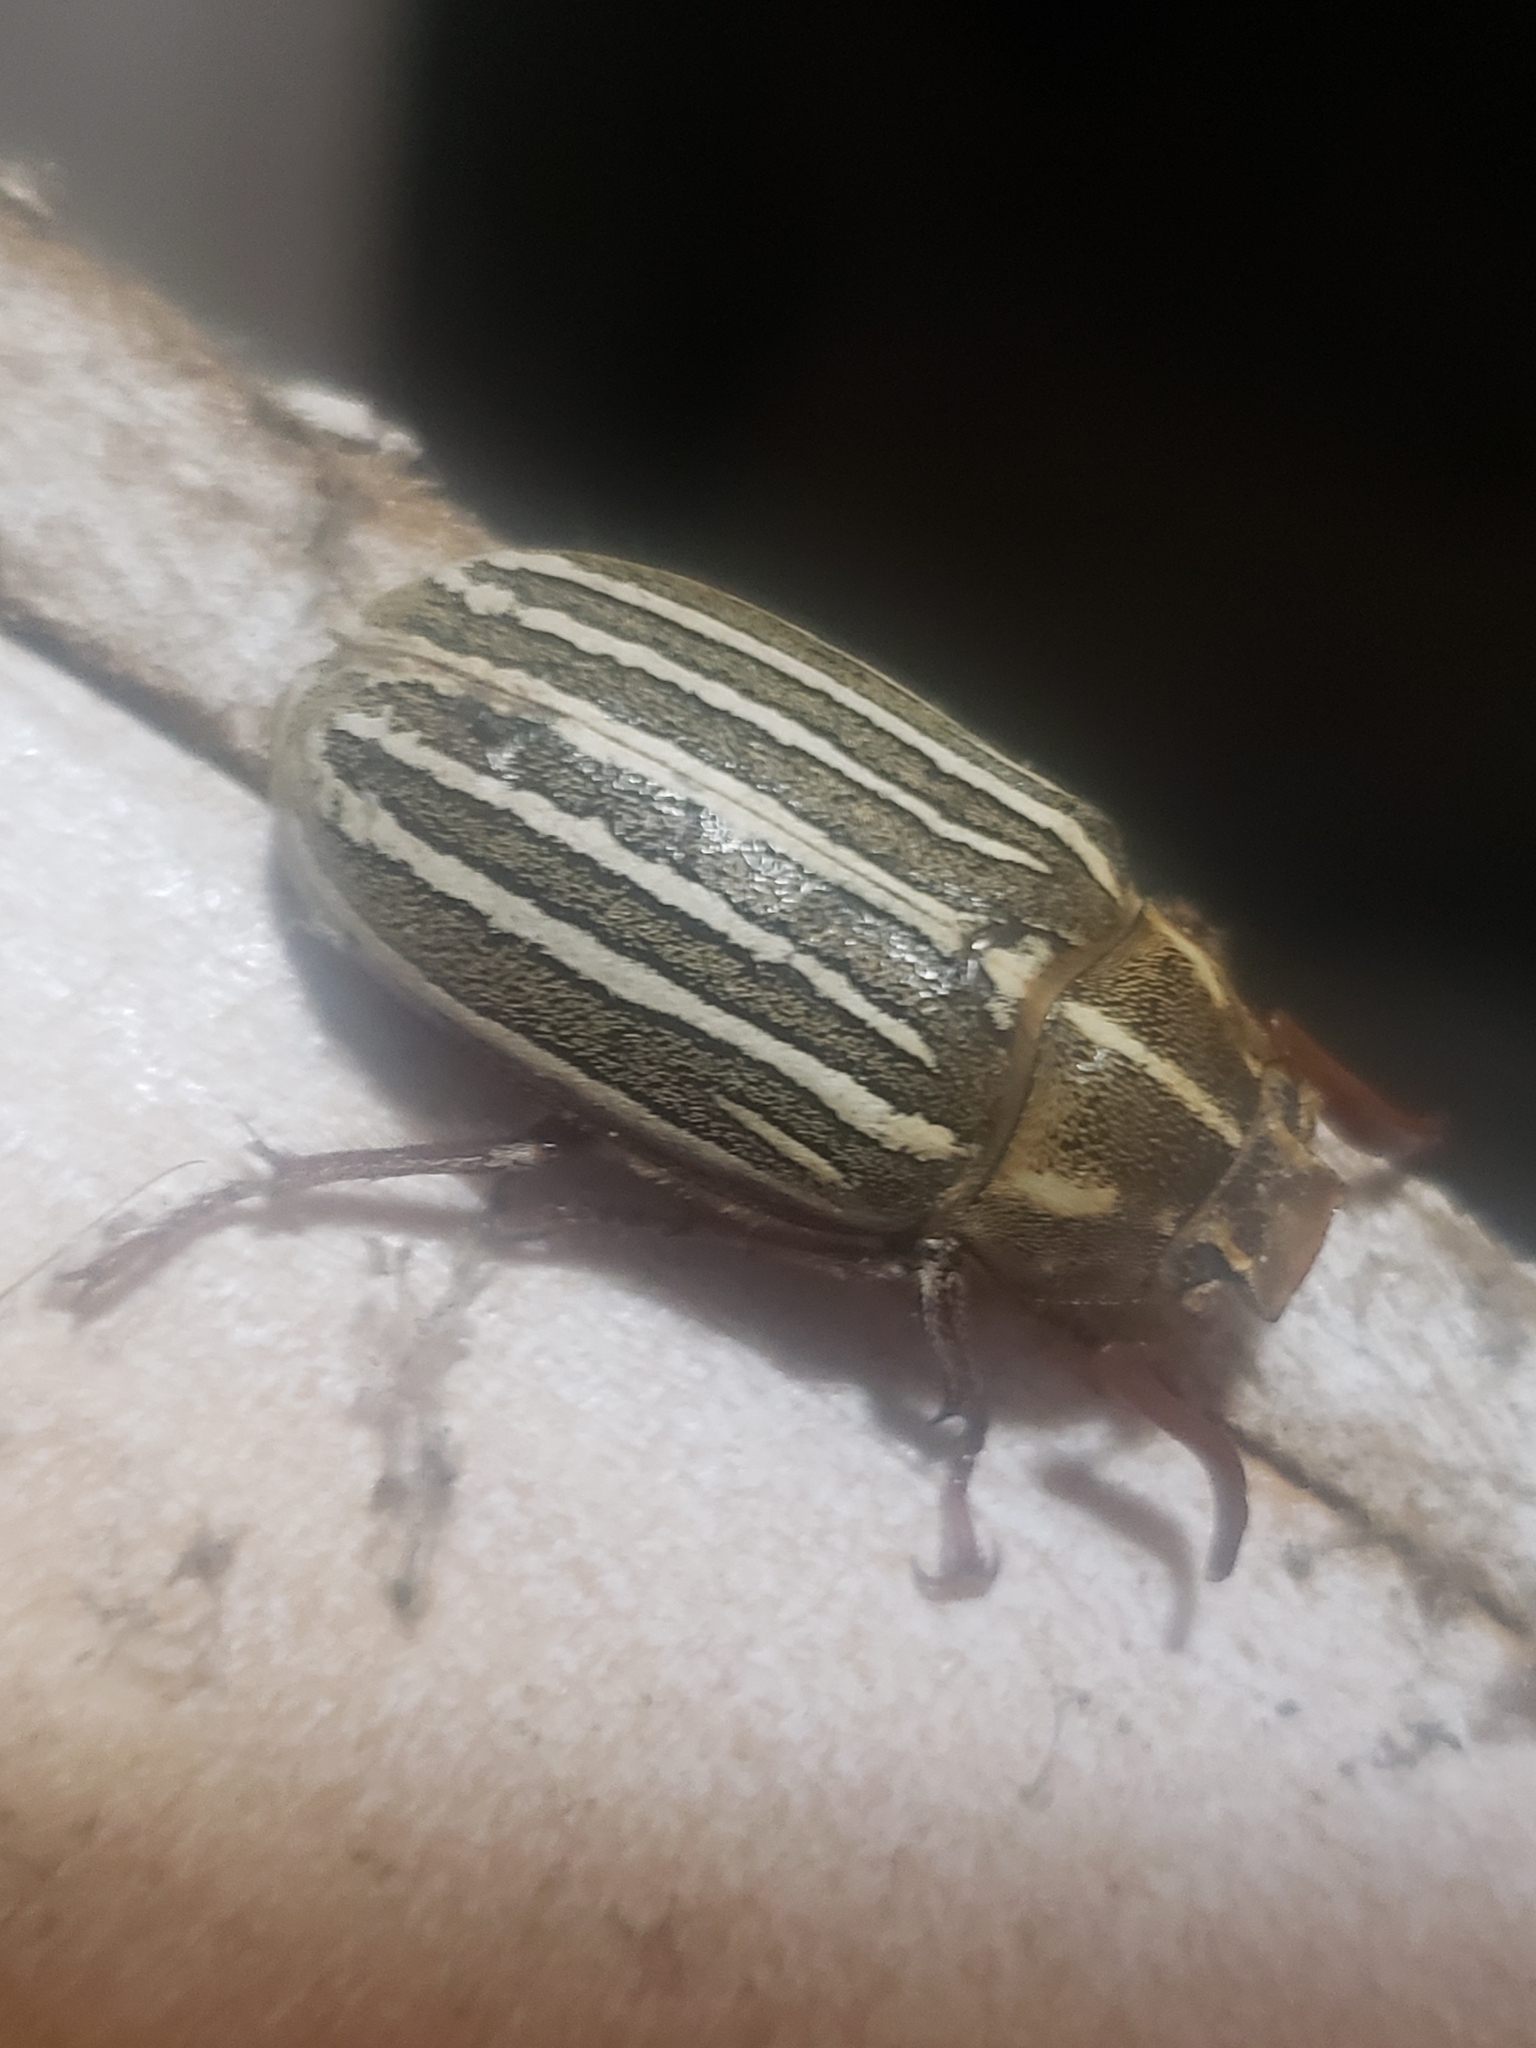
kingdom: Animalia
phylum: Arthropoda
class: Insecta
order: Coleoptera
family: Scarabaeidae
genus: Polyphylla
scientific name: Polyphylla decemlineata
